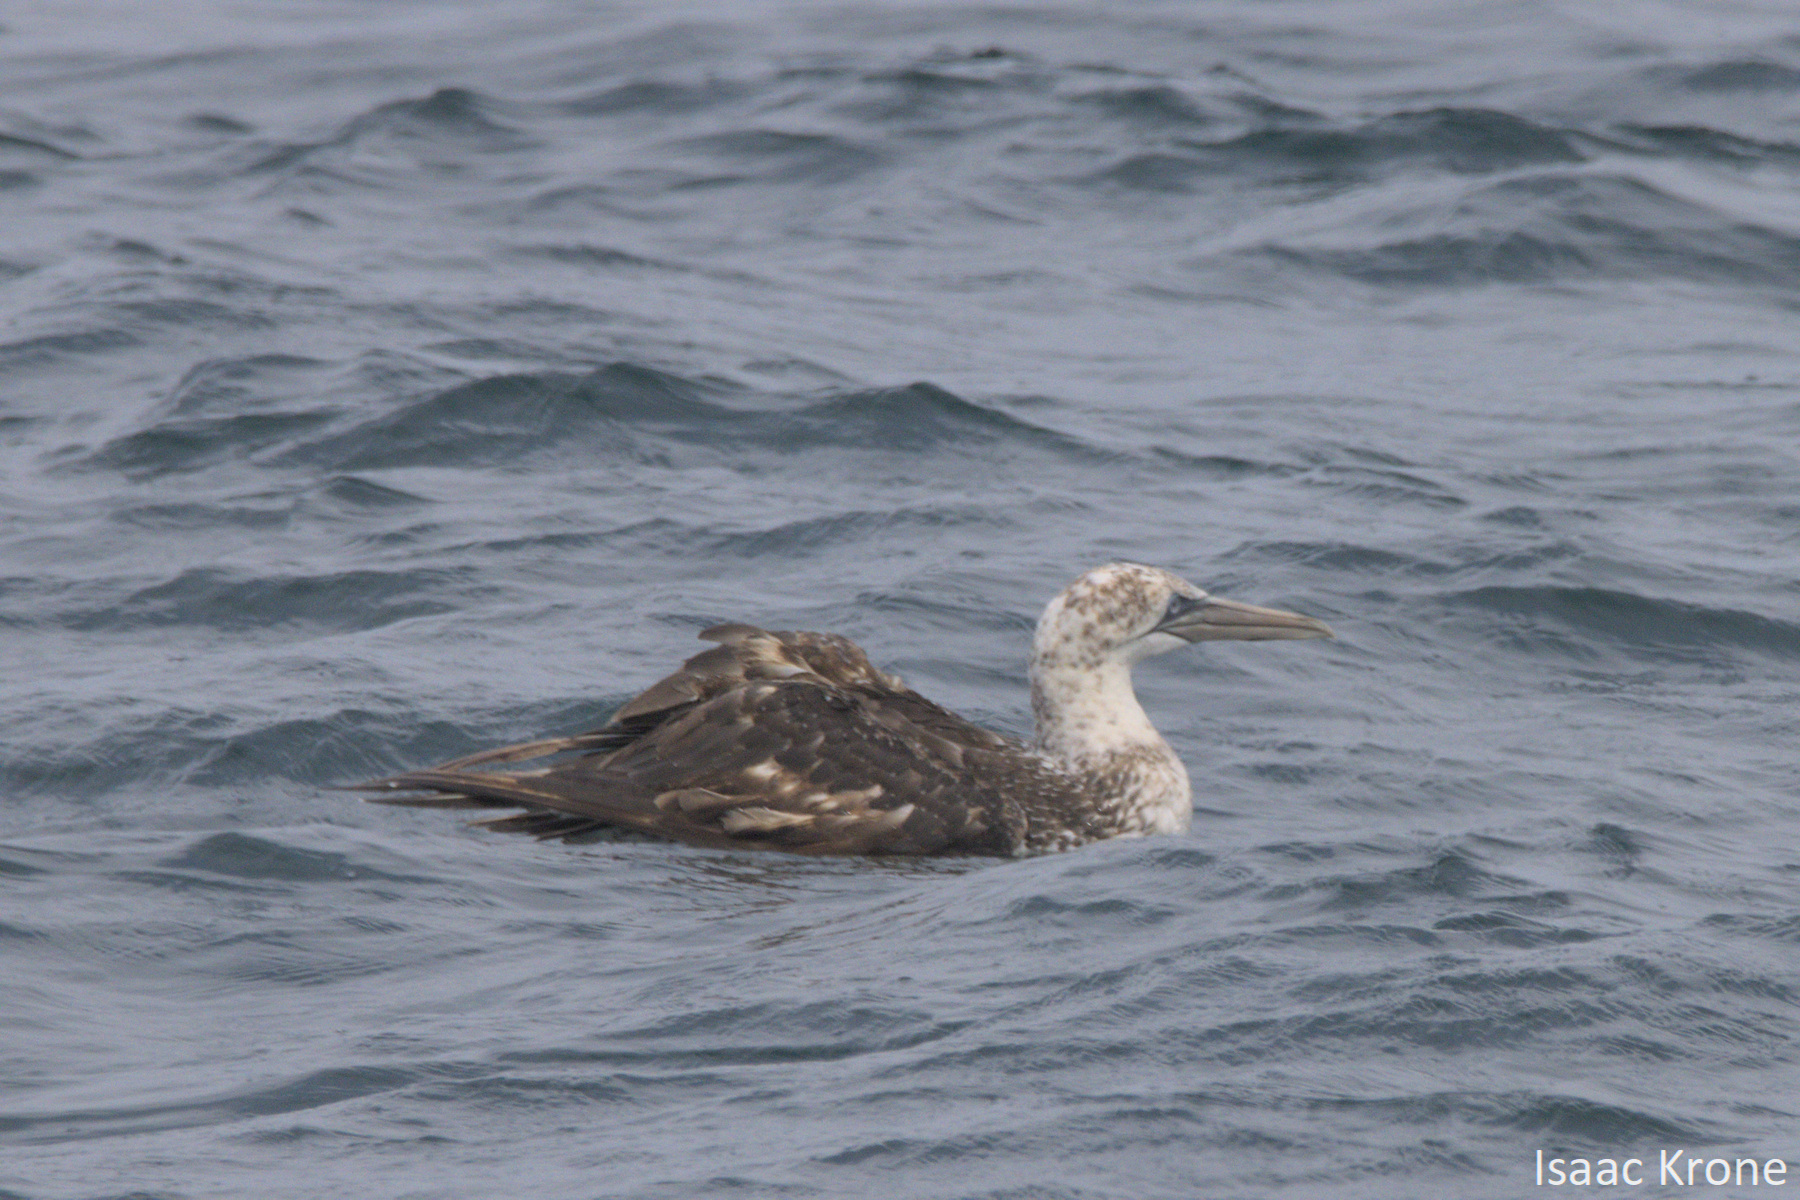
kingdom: Animalia
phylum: Chordata
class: Aves
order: Suliformes
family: Sulidae
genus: Morus
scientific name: Morus bassanus
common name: Northern gannet
